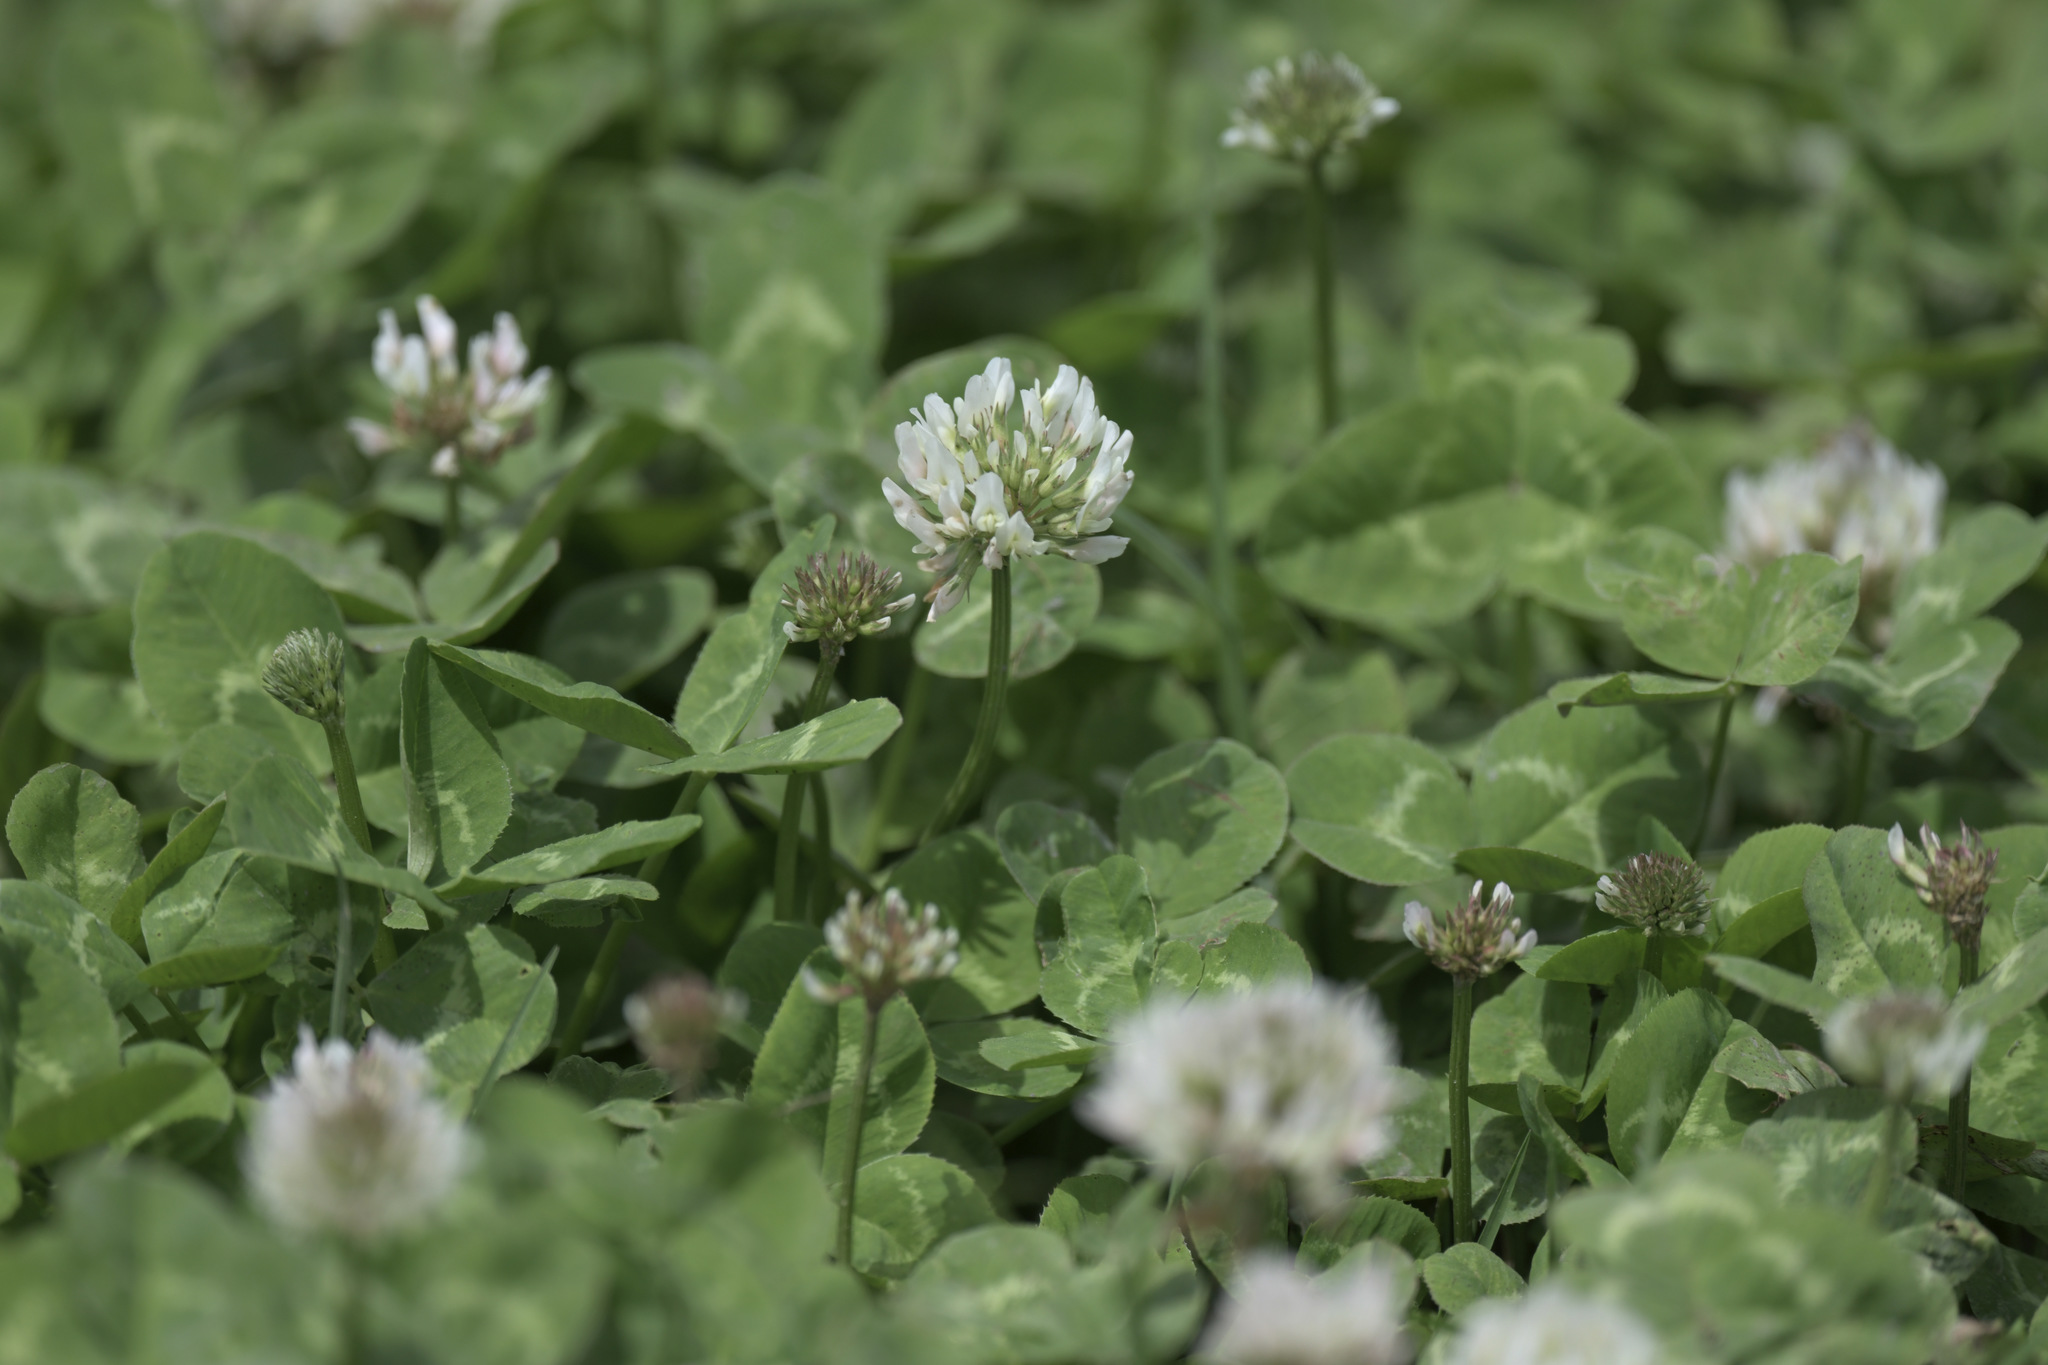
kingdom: Plantae
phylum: Tracheophyta
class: Magnoliopsida
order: Fabales
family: Fabaceae
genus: Trifolium
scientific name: Trifolium repens
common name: White clover
